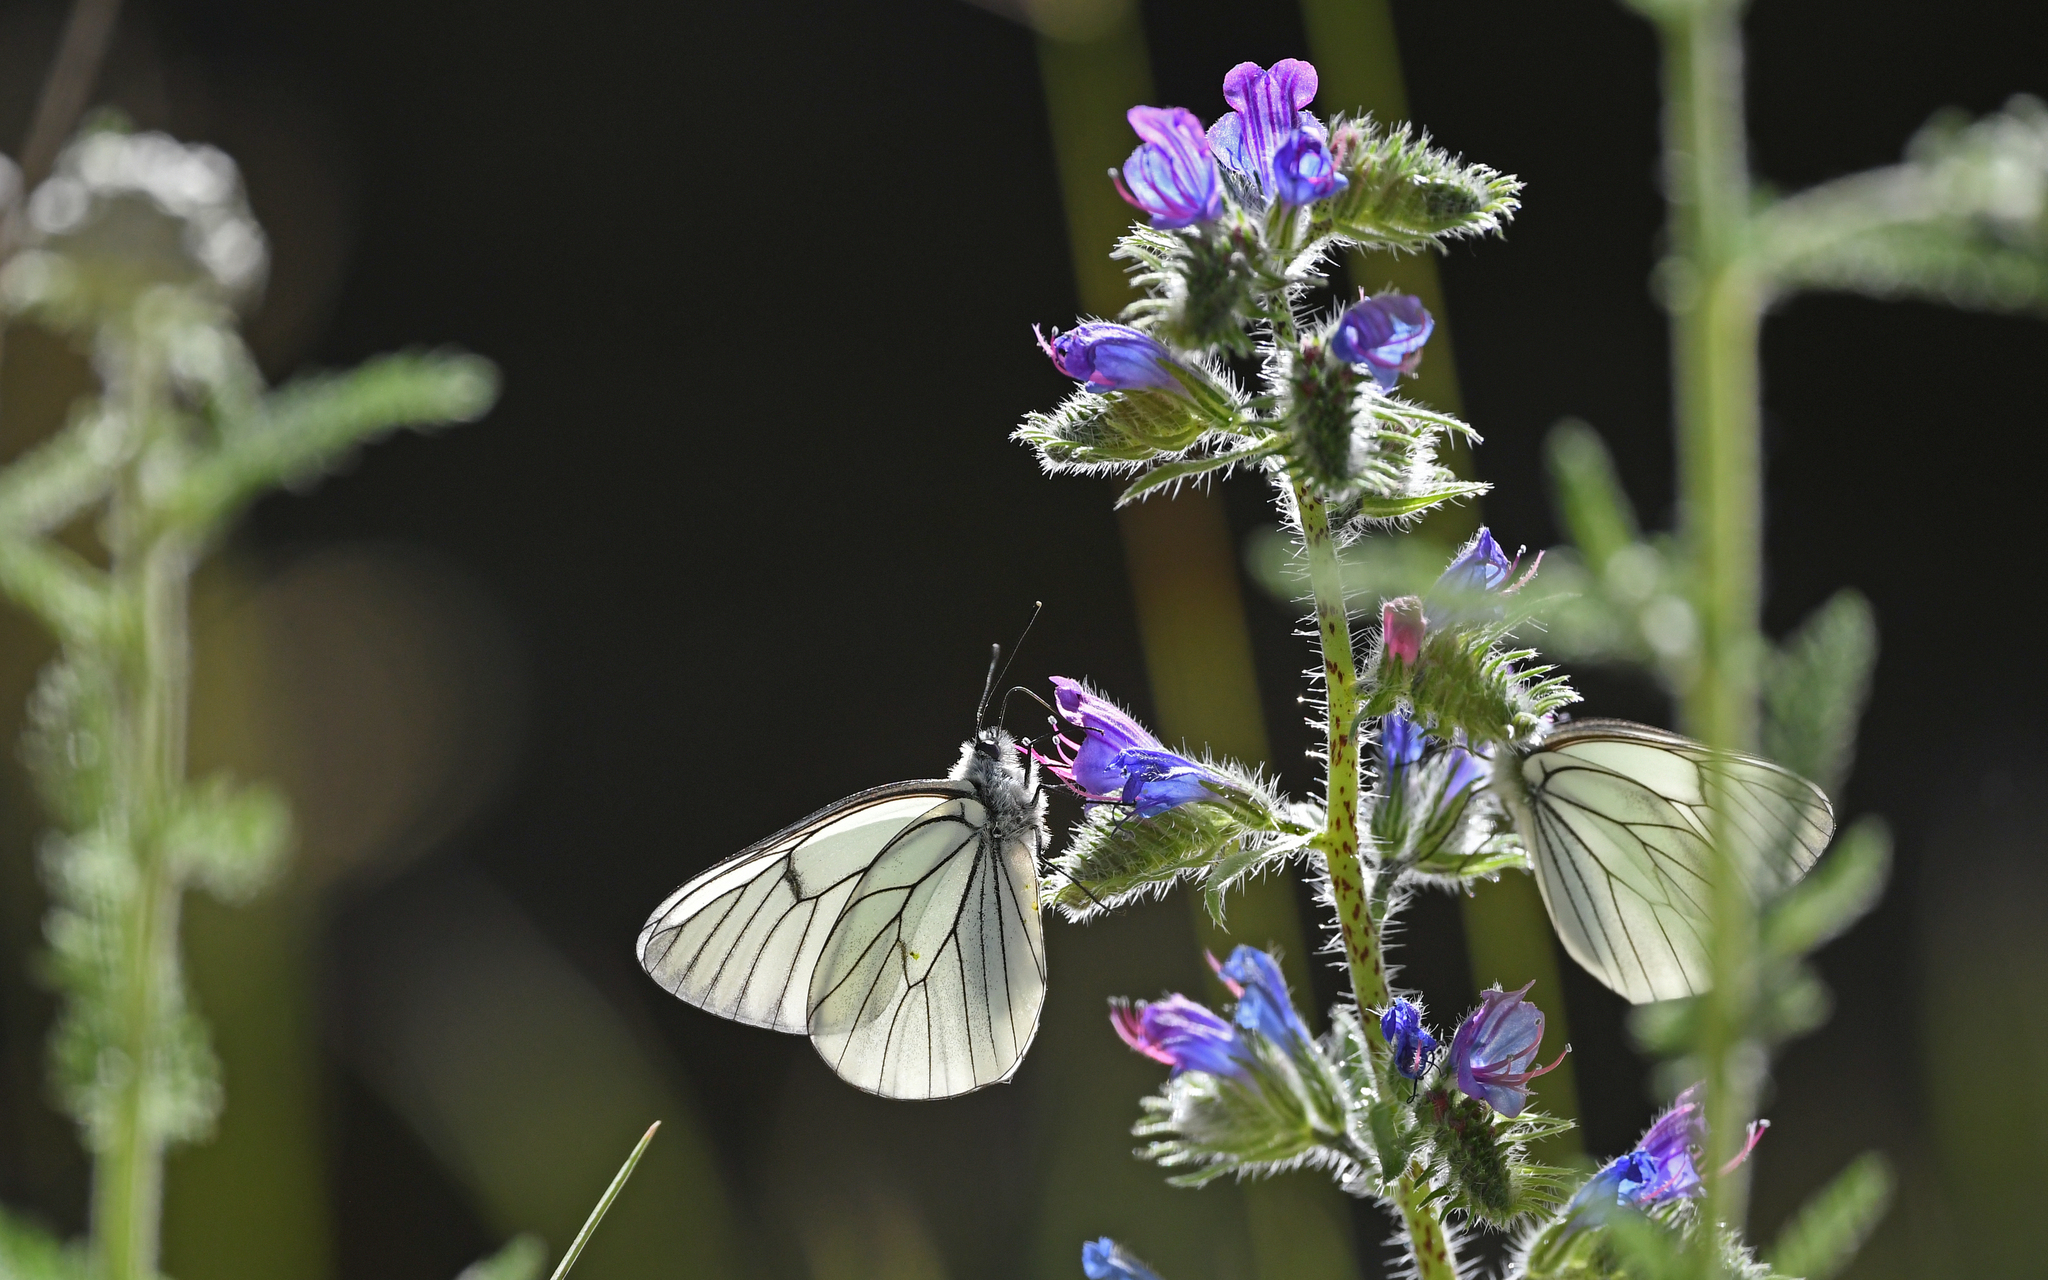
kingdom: Animalia
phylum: Arthropoda
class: Insecta
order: Lepidoptera
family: Pieridae
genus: Aporia
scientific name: Aporia crataegi
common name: Black-veined white
